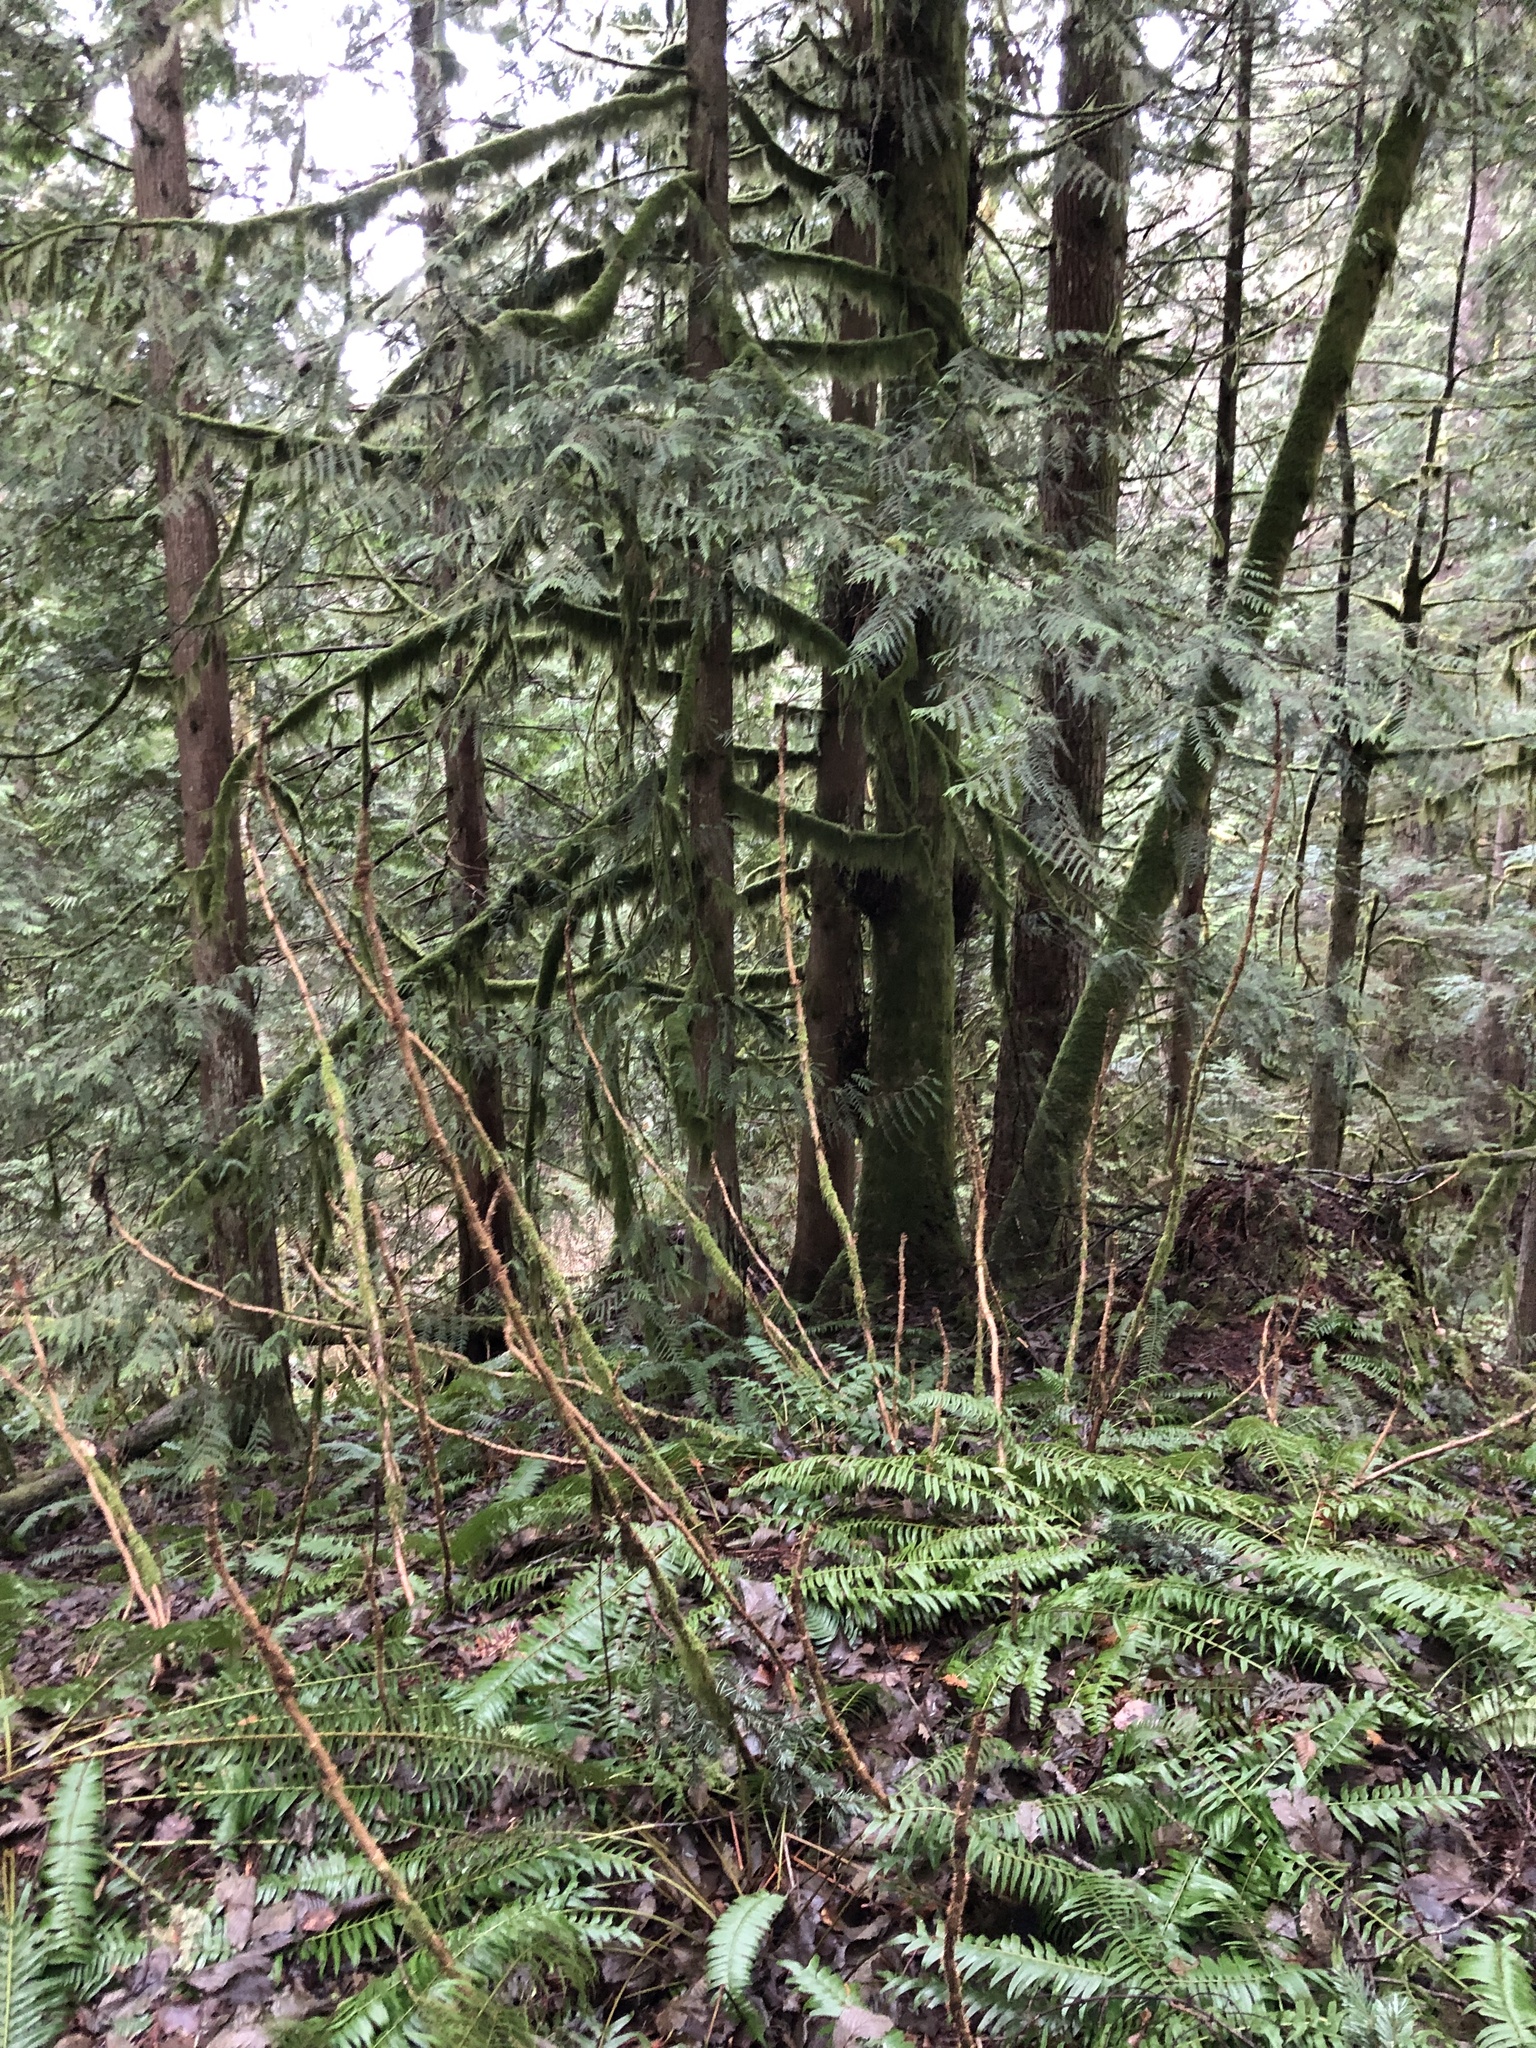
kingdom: Plantae
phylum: Tracheophyta
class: Magnoliopsida
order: Apiales
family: Araliaceae
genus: Oplopanax
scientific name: Oplopanax horridus
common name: Devil's walking-stick
